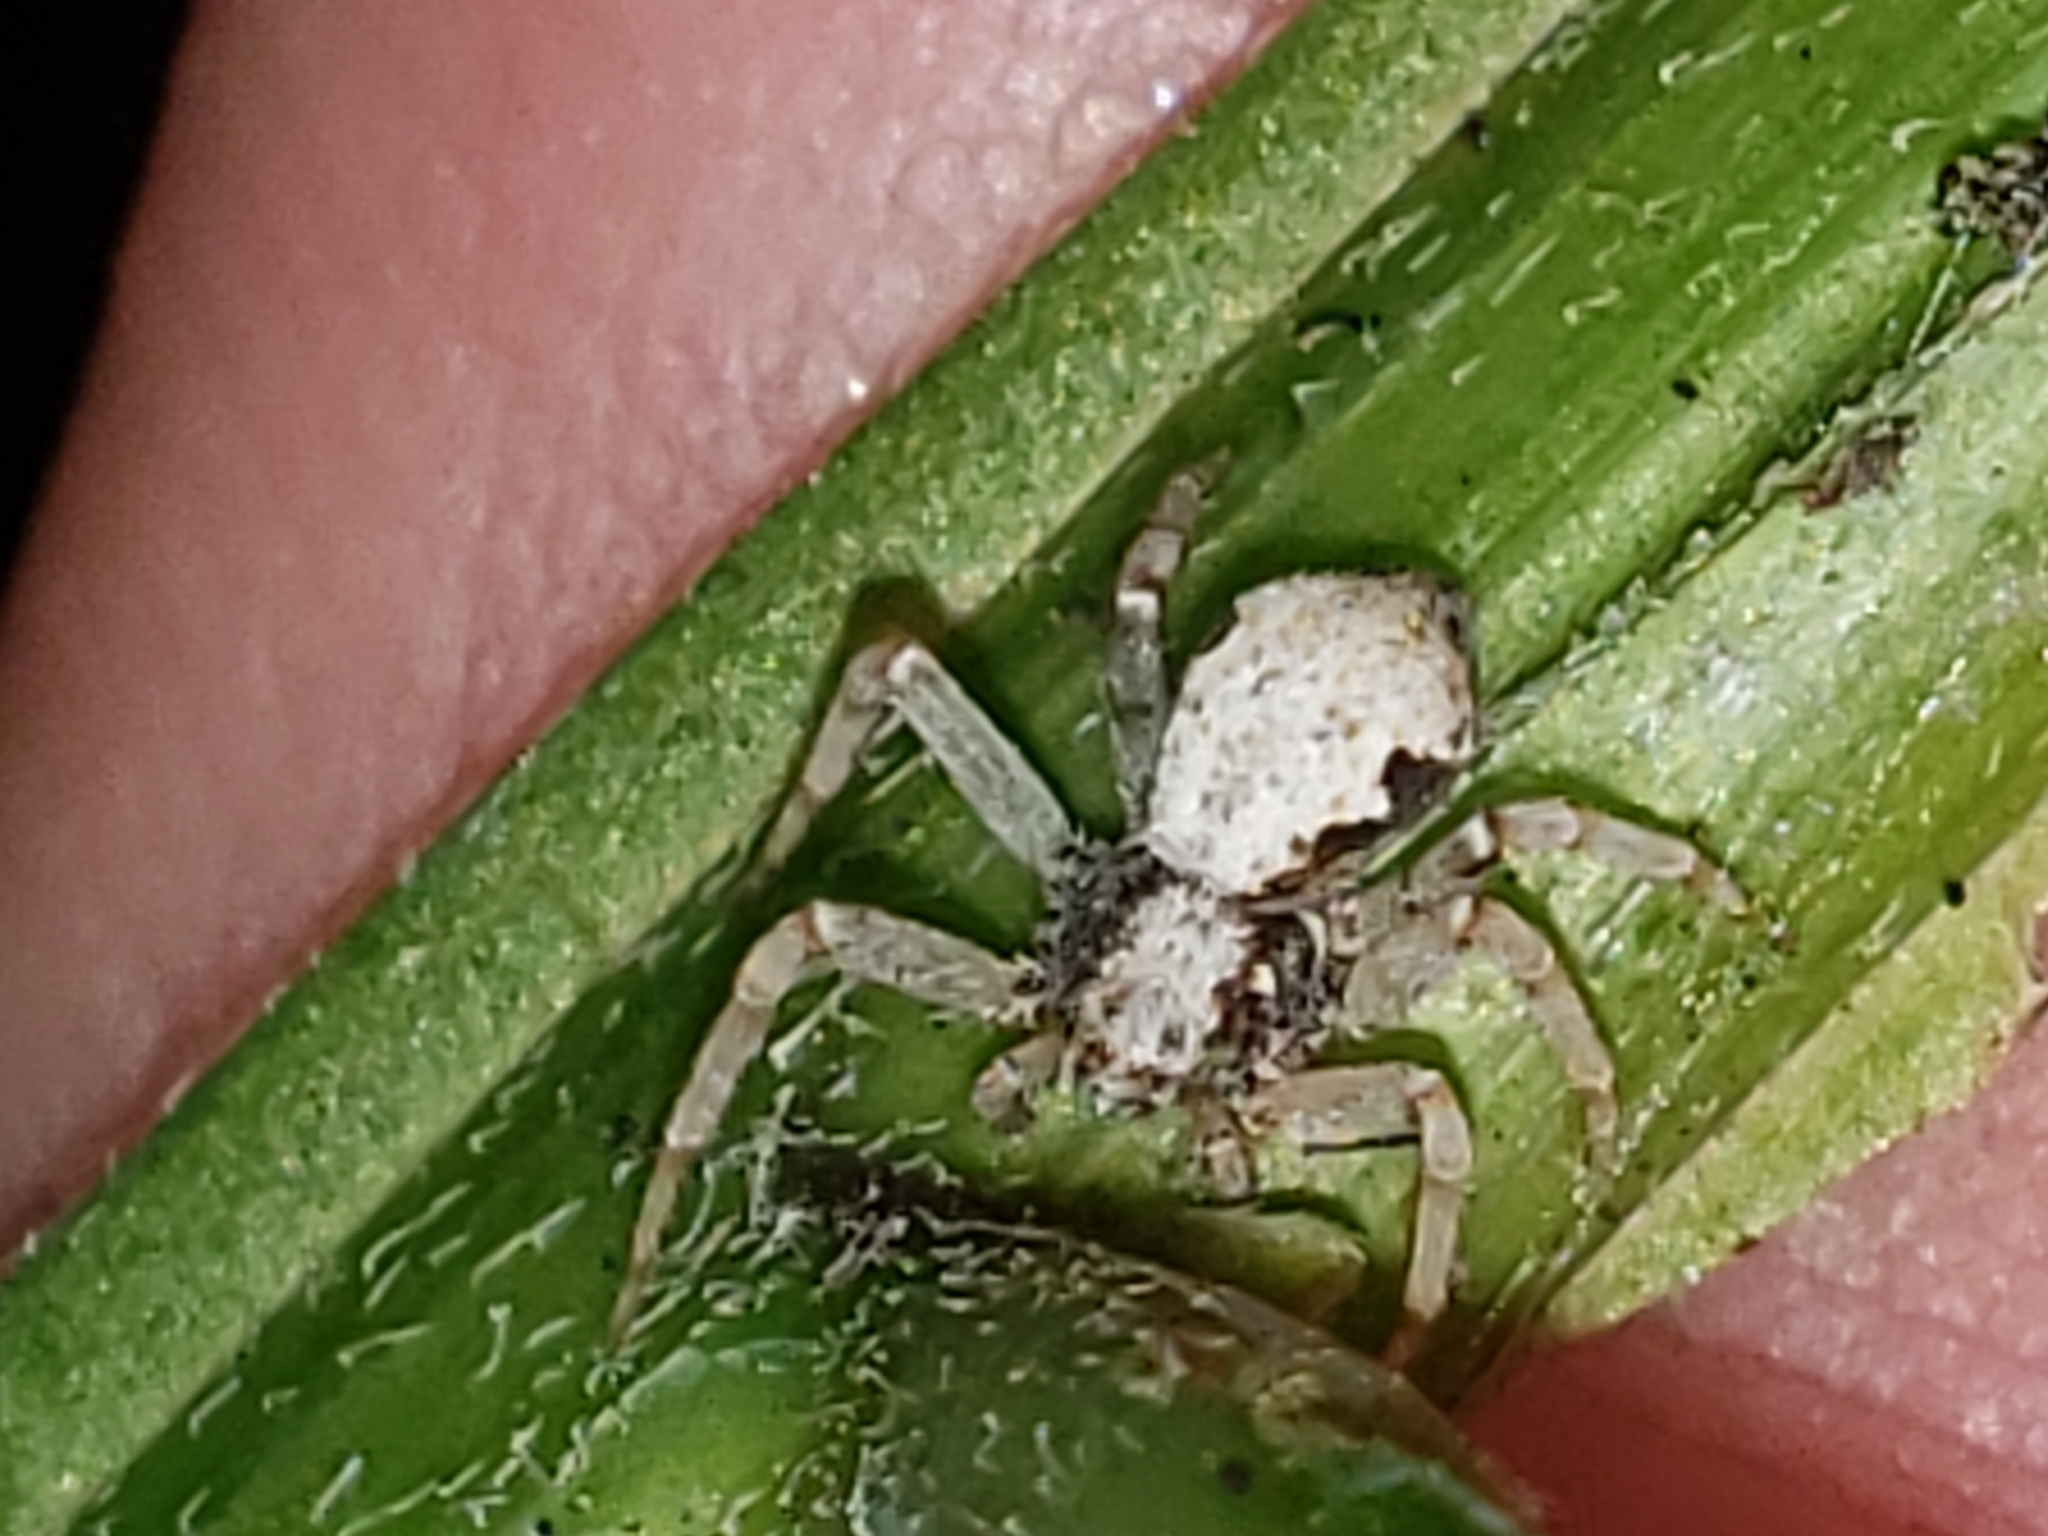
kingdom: Animalia
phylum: Arthropoda
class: Arachnida
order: Araneae
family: Philodromidae
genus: Philodromus
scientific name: Philodromus marxi
